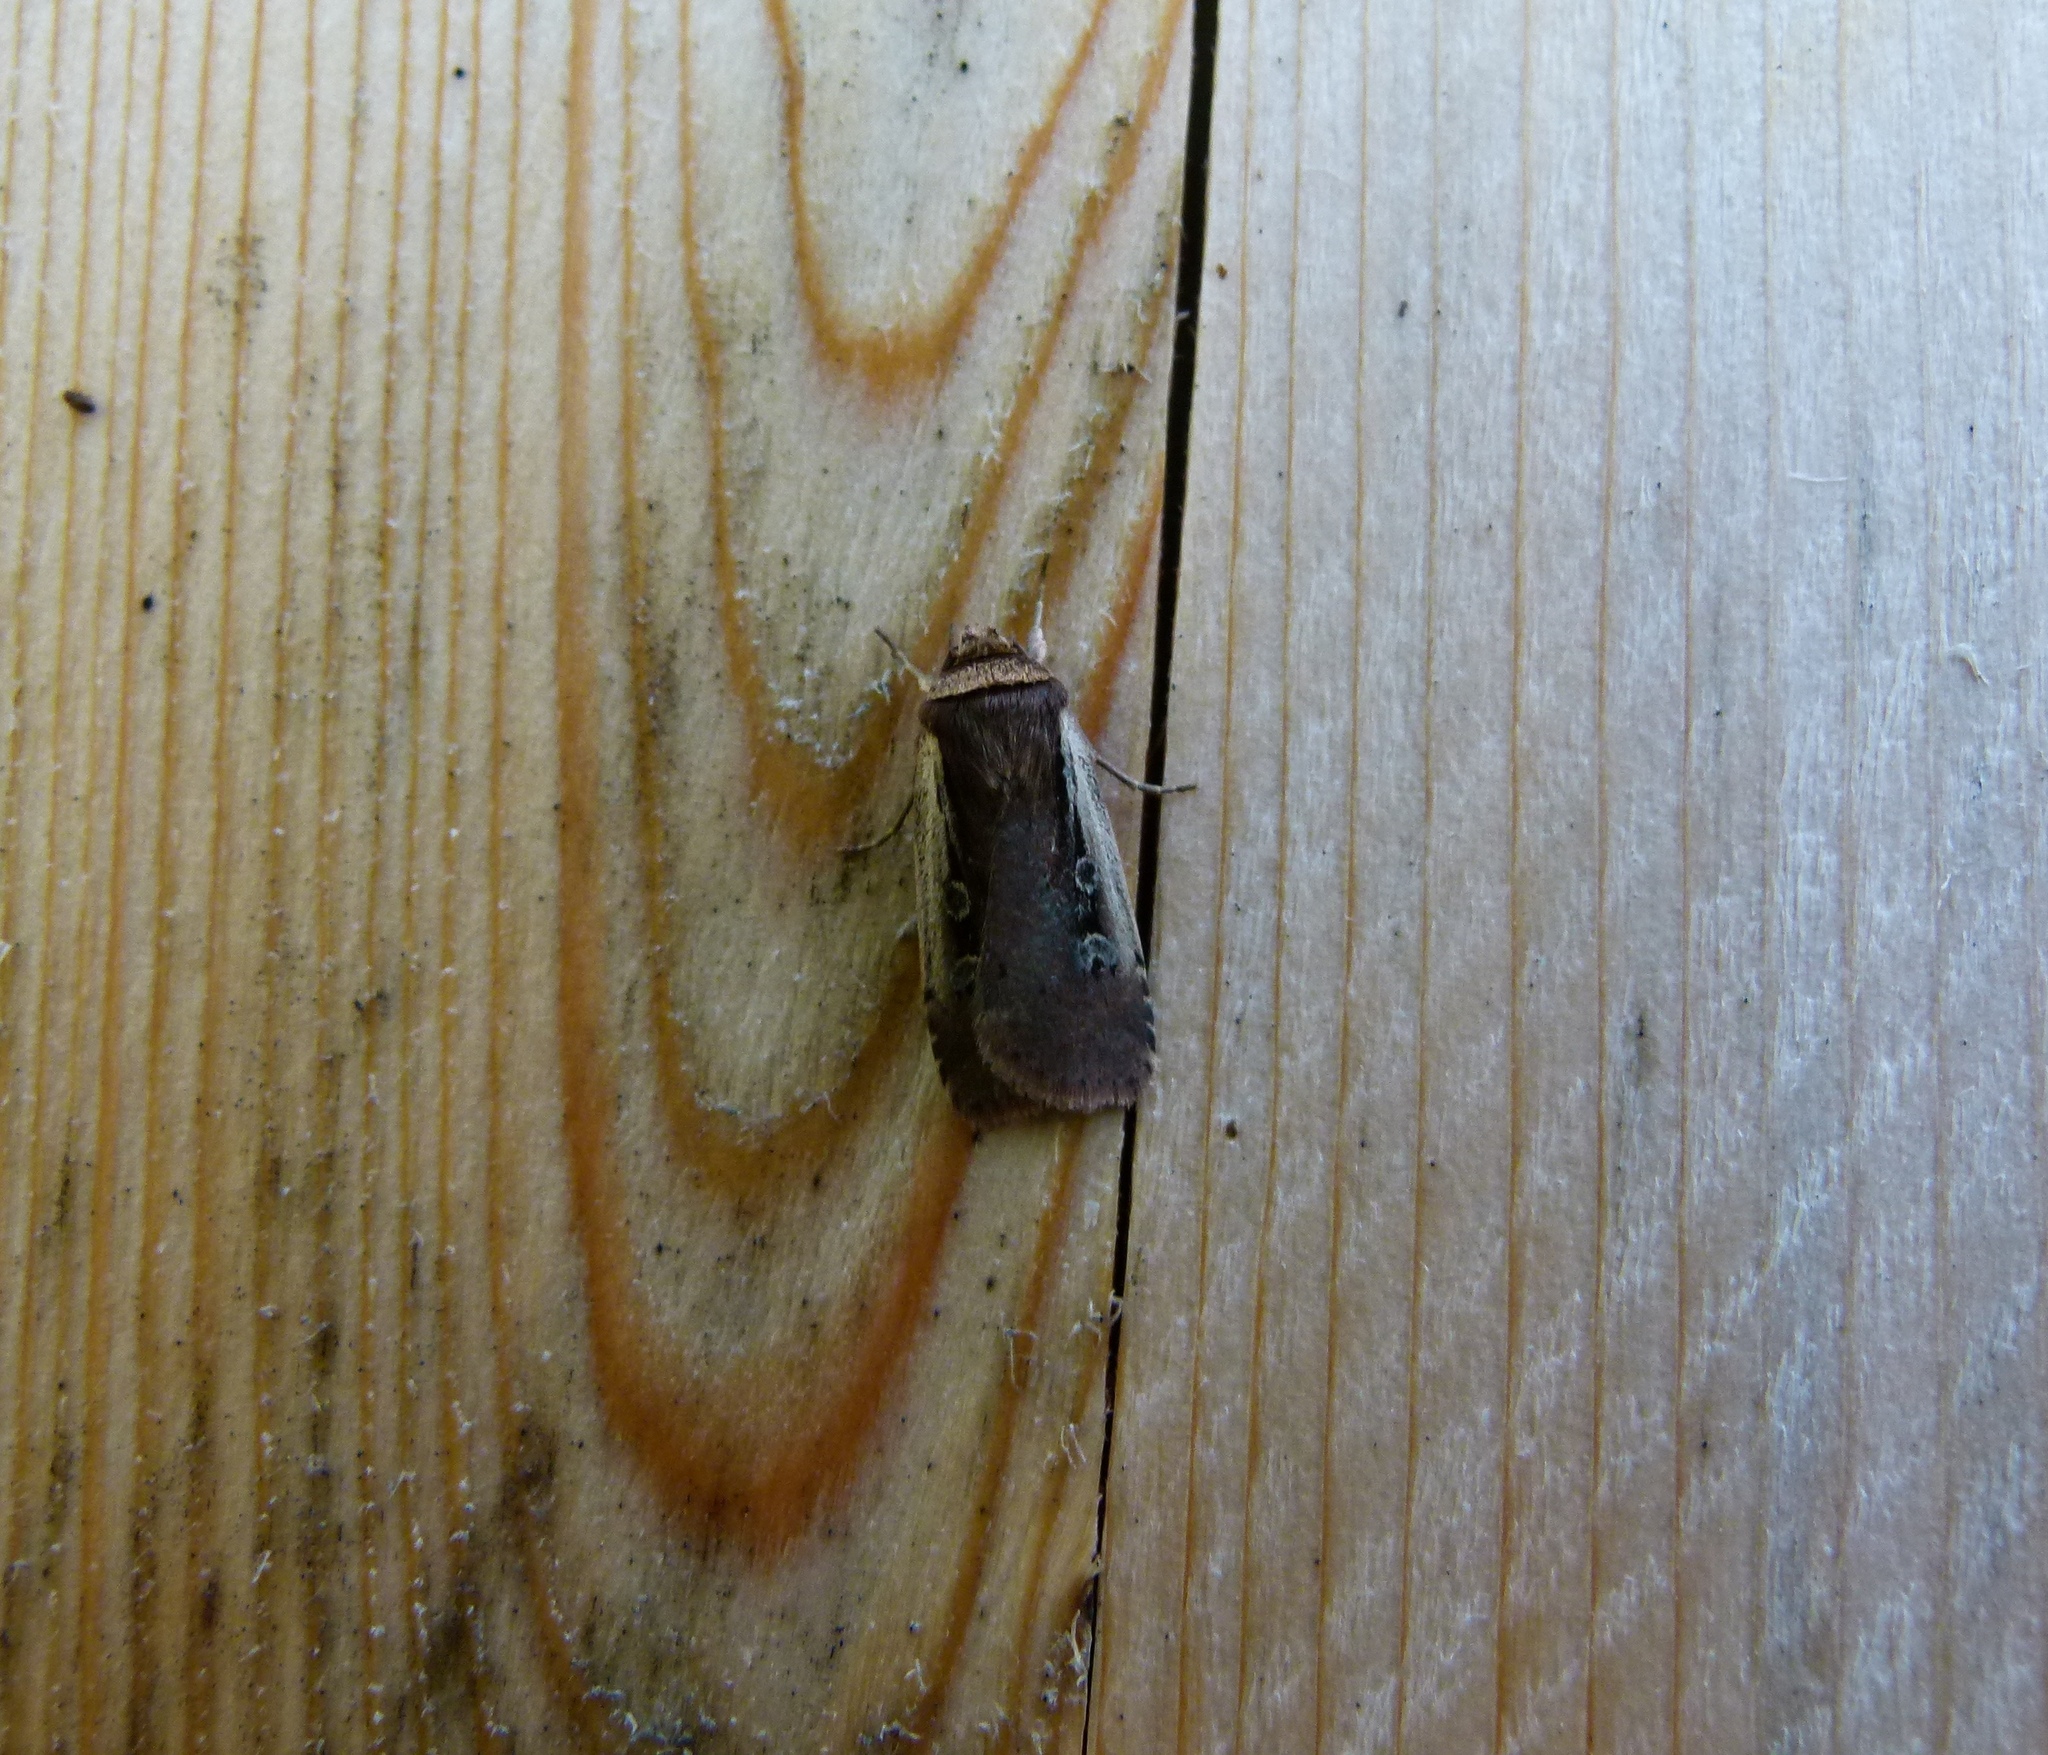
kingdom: Animalia
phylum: Arthropoda
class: Insecta
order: Lepidoptera
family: Noctuidae
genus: Ochropleura
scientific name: Ochropleura implecta
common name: Flame-shouldered dart
